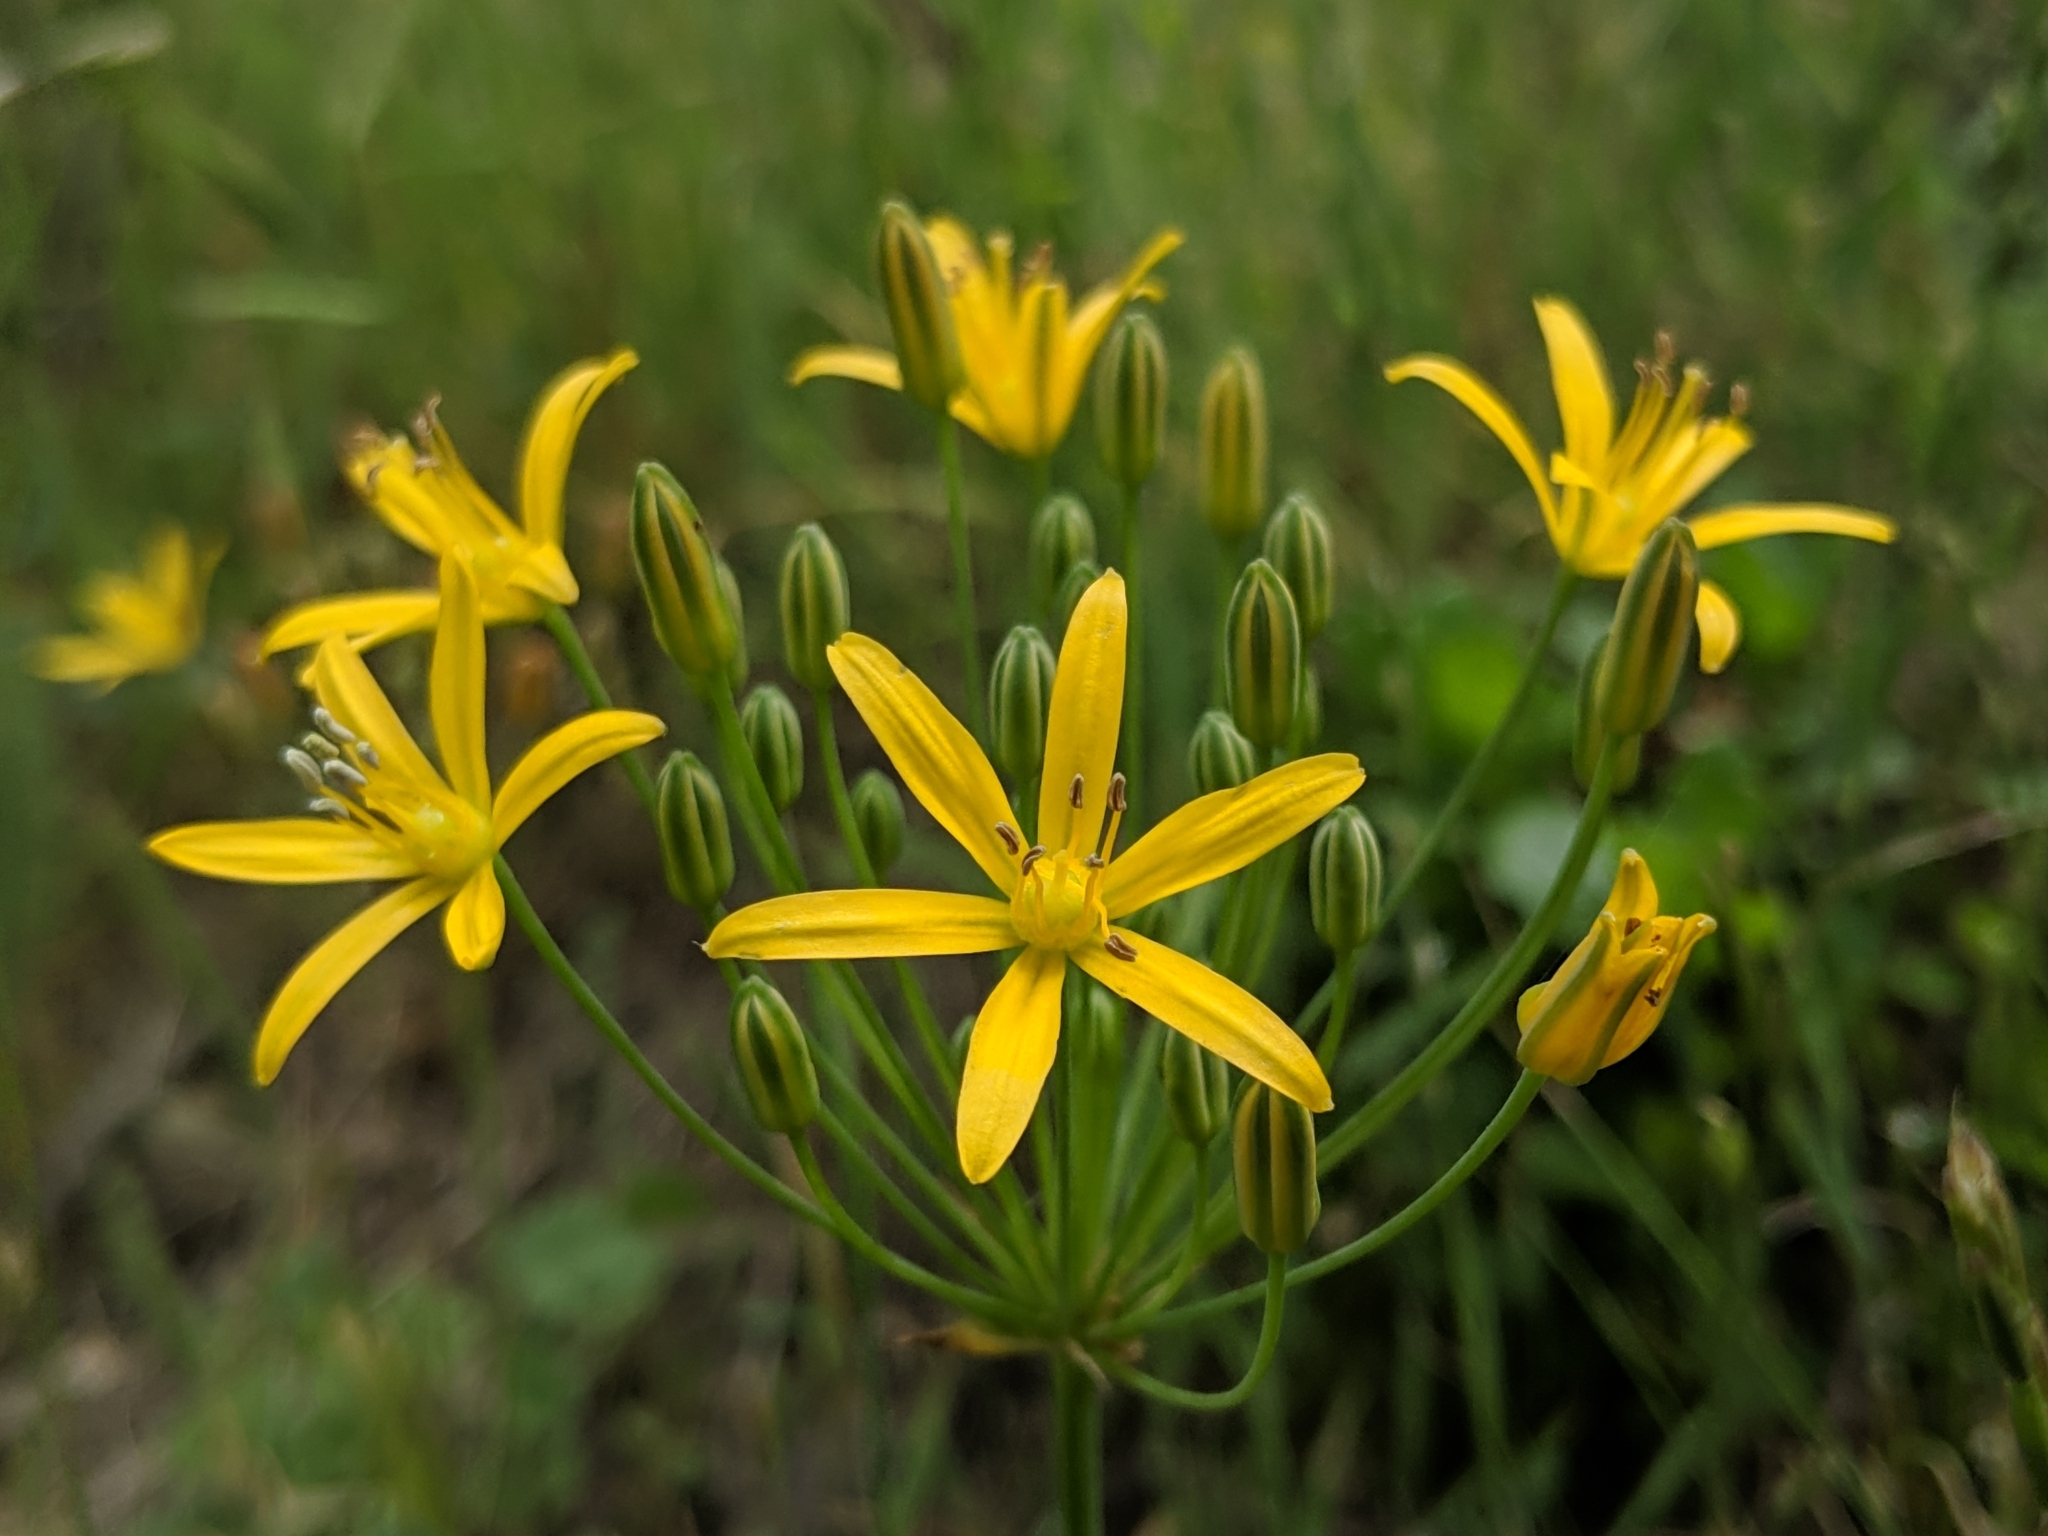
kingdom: Plantae
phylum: Tracheophyta
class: Liliopsida
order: Asparagales
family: Asparagaceae
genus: Bloomeria
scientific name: Bloomeria crocea
